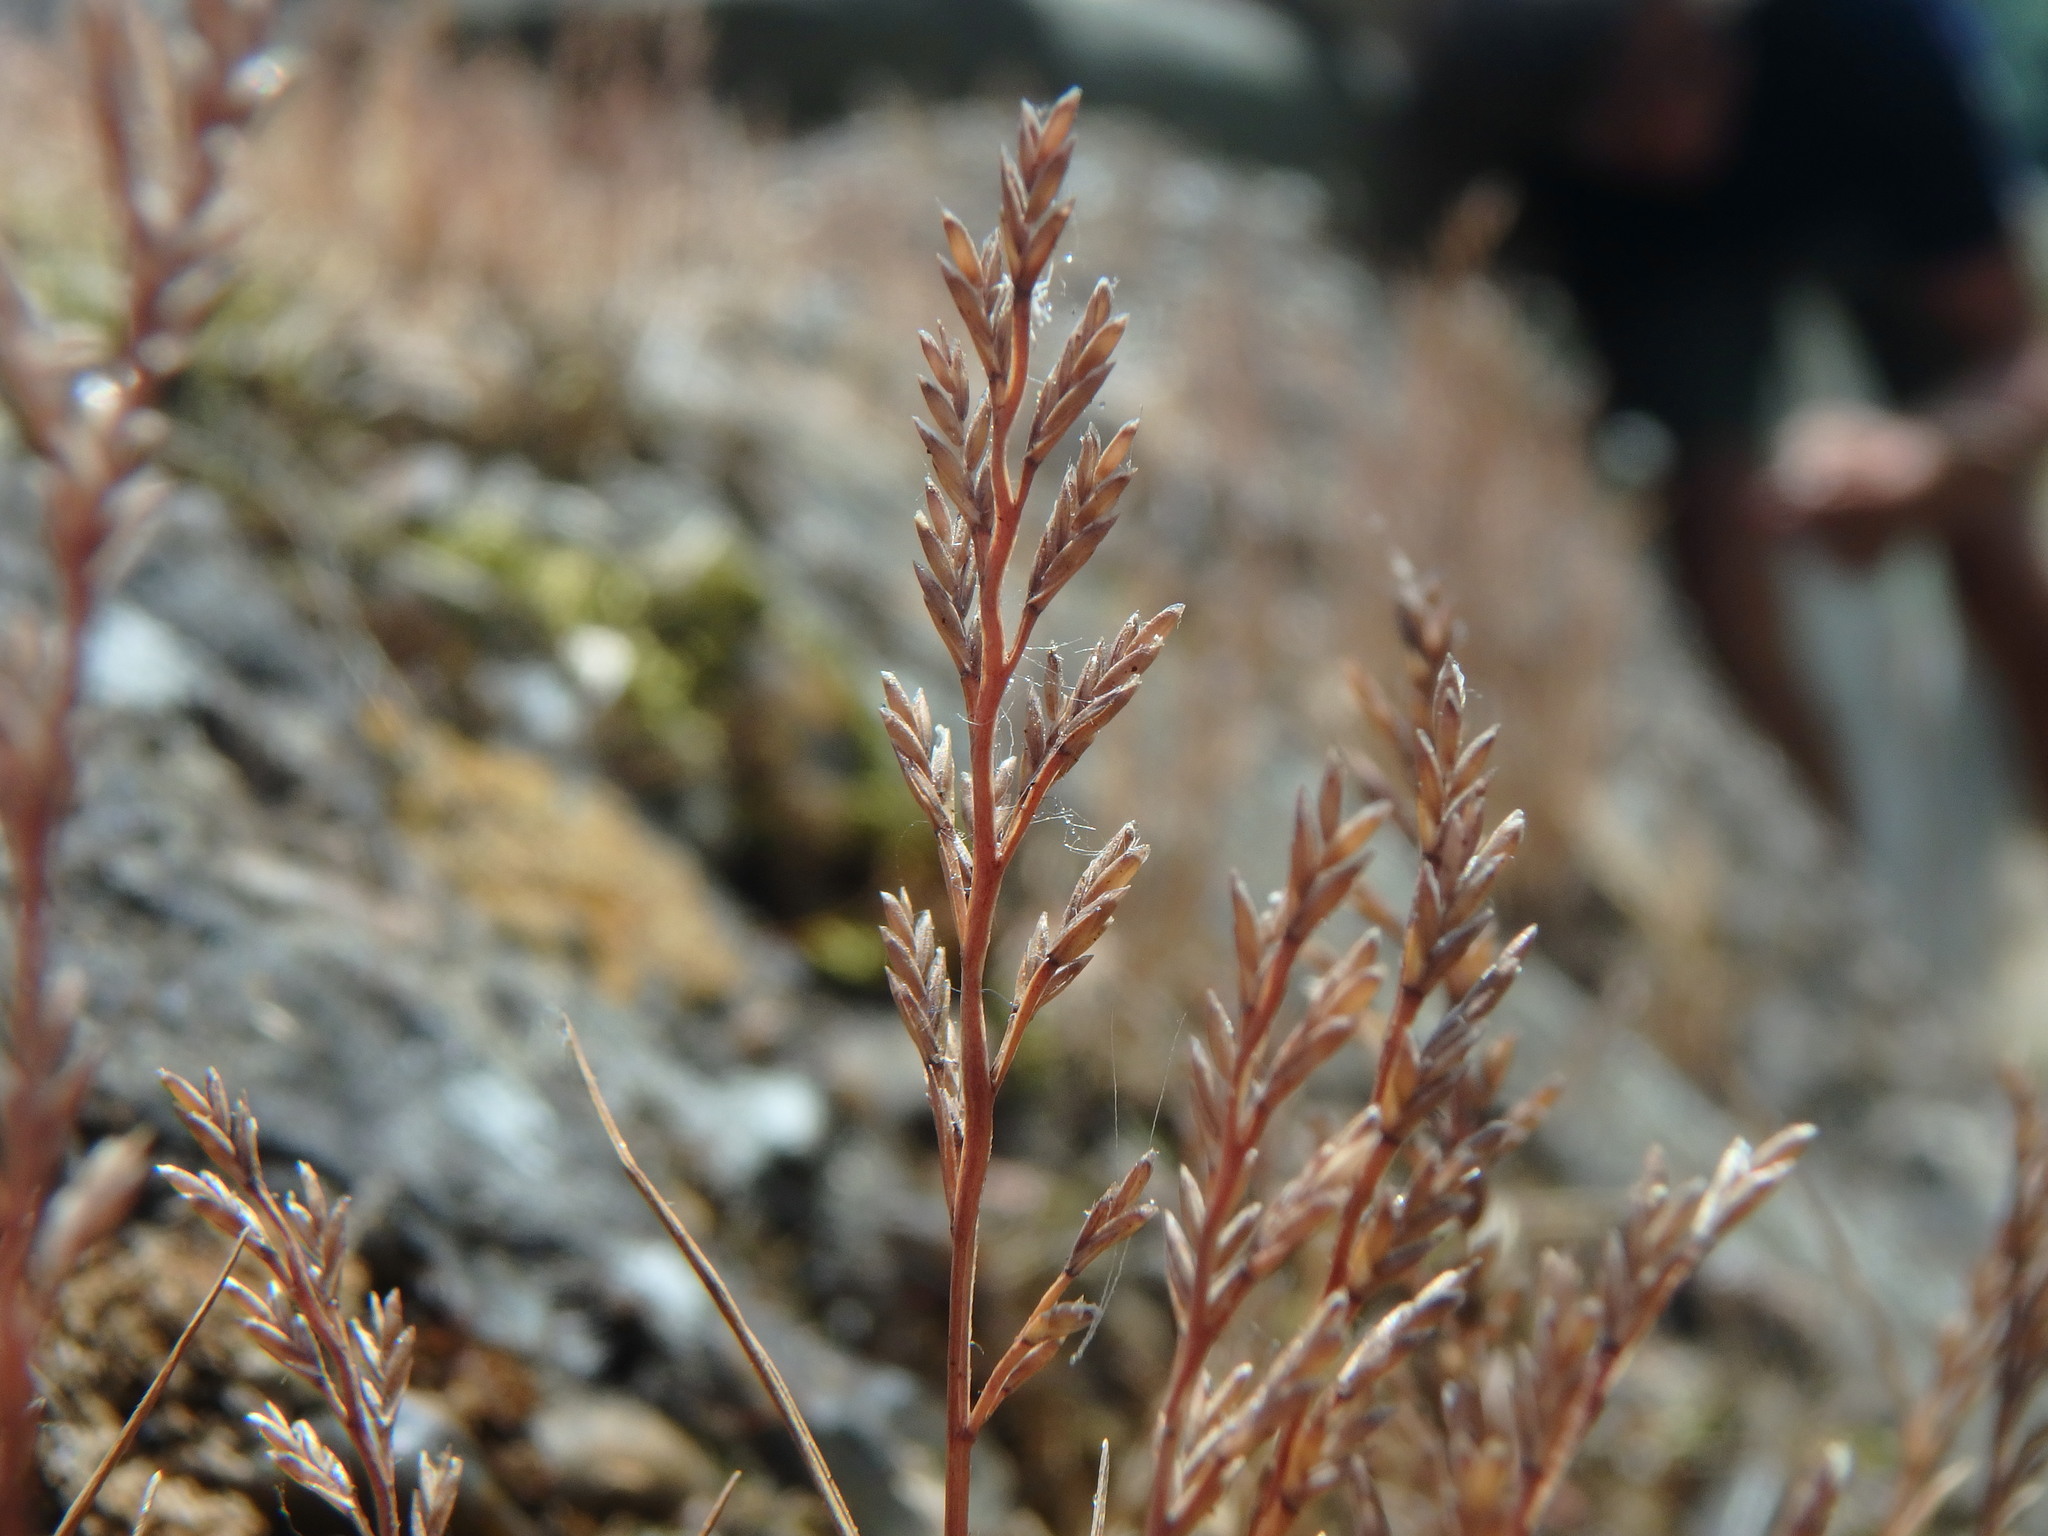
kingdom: Plantae
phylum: Tracheophyta
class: Liliopsida
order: Poales
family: Poaceae
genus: Catapodium
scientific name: Catapodium rigidum
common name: Fern-grass
